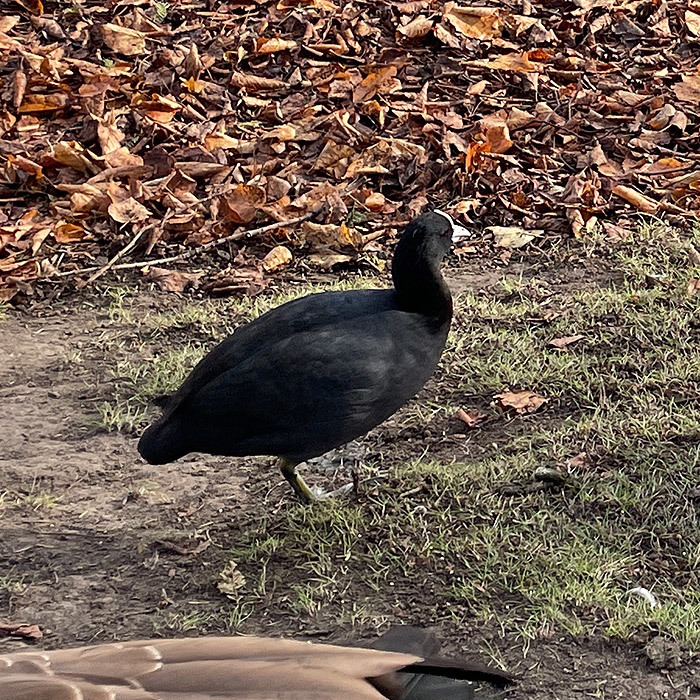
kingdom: Animalia
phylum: Chordata
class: Aves
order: Gruiformes
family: Rallidae
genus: Fulica
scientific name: Fulica atra
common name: Eurasian coot
